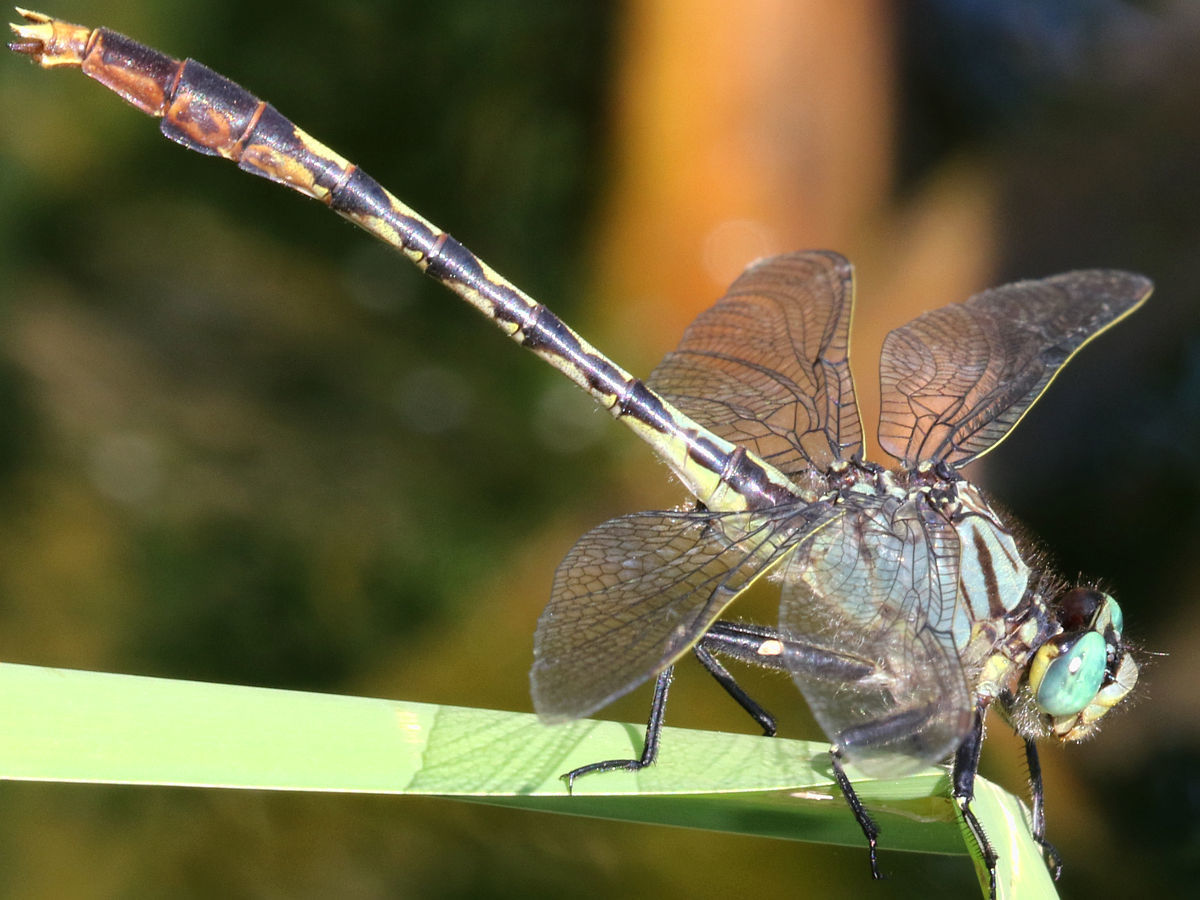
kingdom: Animalia
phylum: Arthropoda
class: Insecta
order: Odonata
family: Gomphidae
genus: Arigomphus
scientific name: Arigomphus villosipes
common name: Unicorn clubtail
